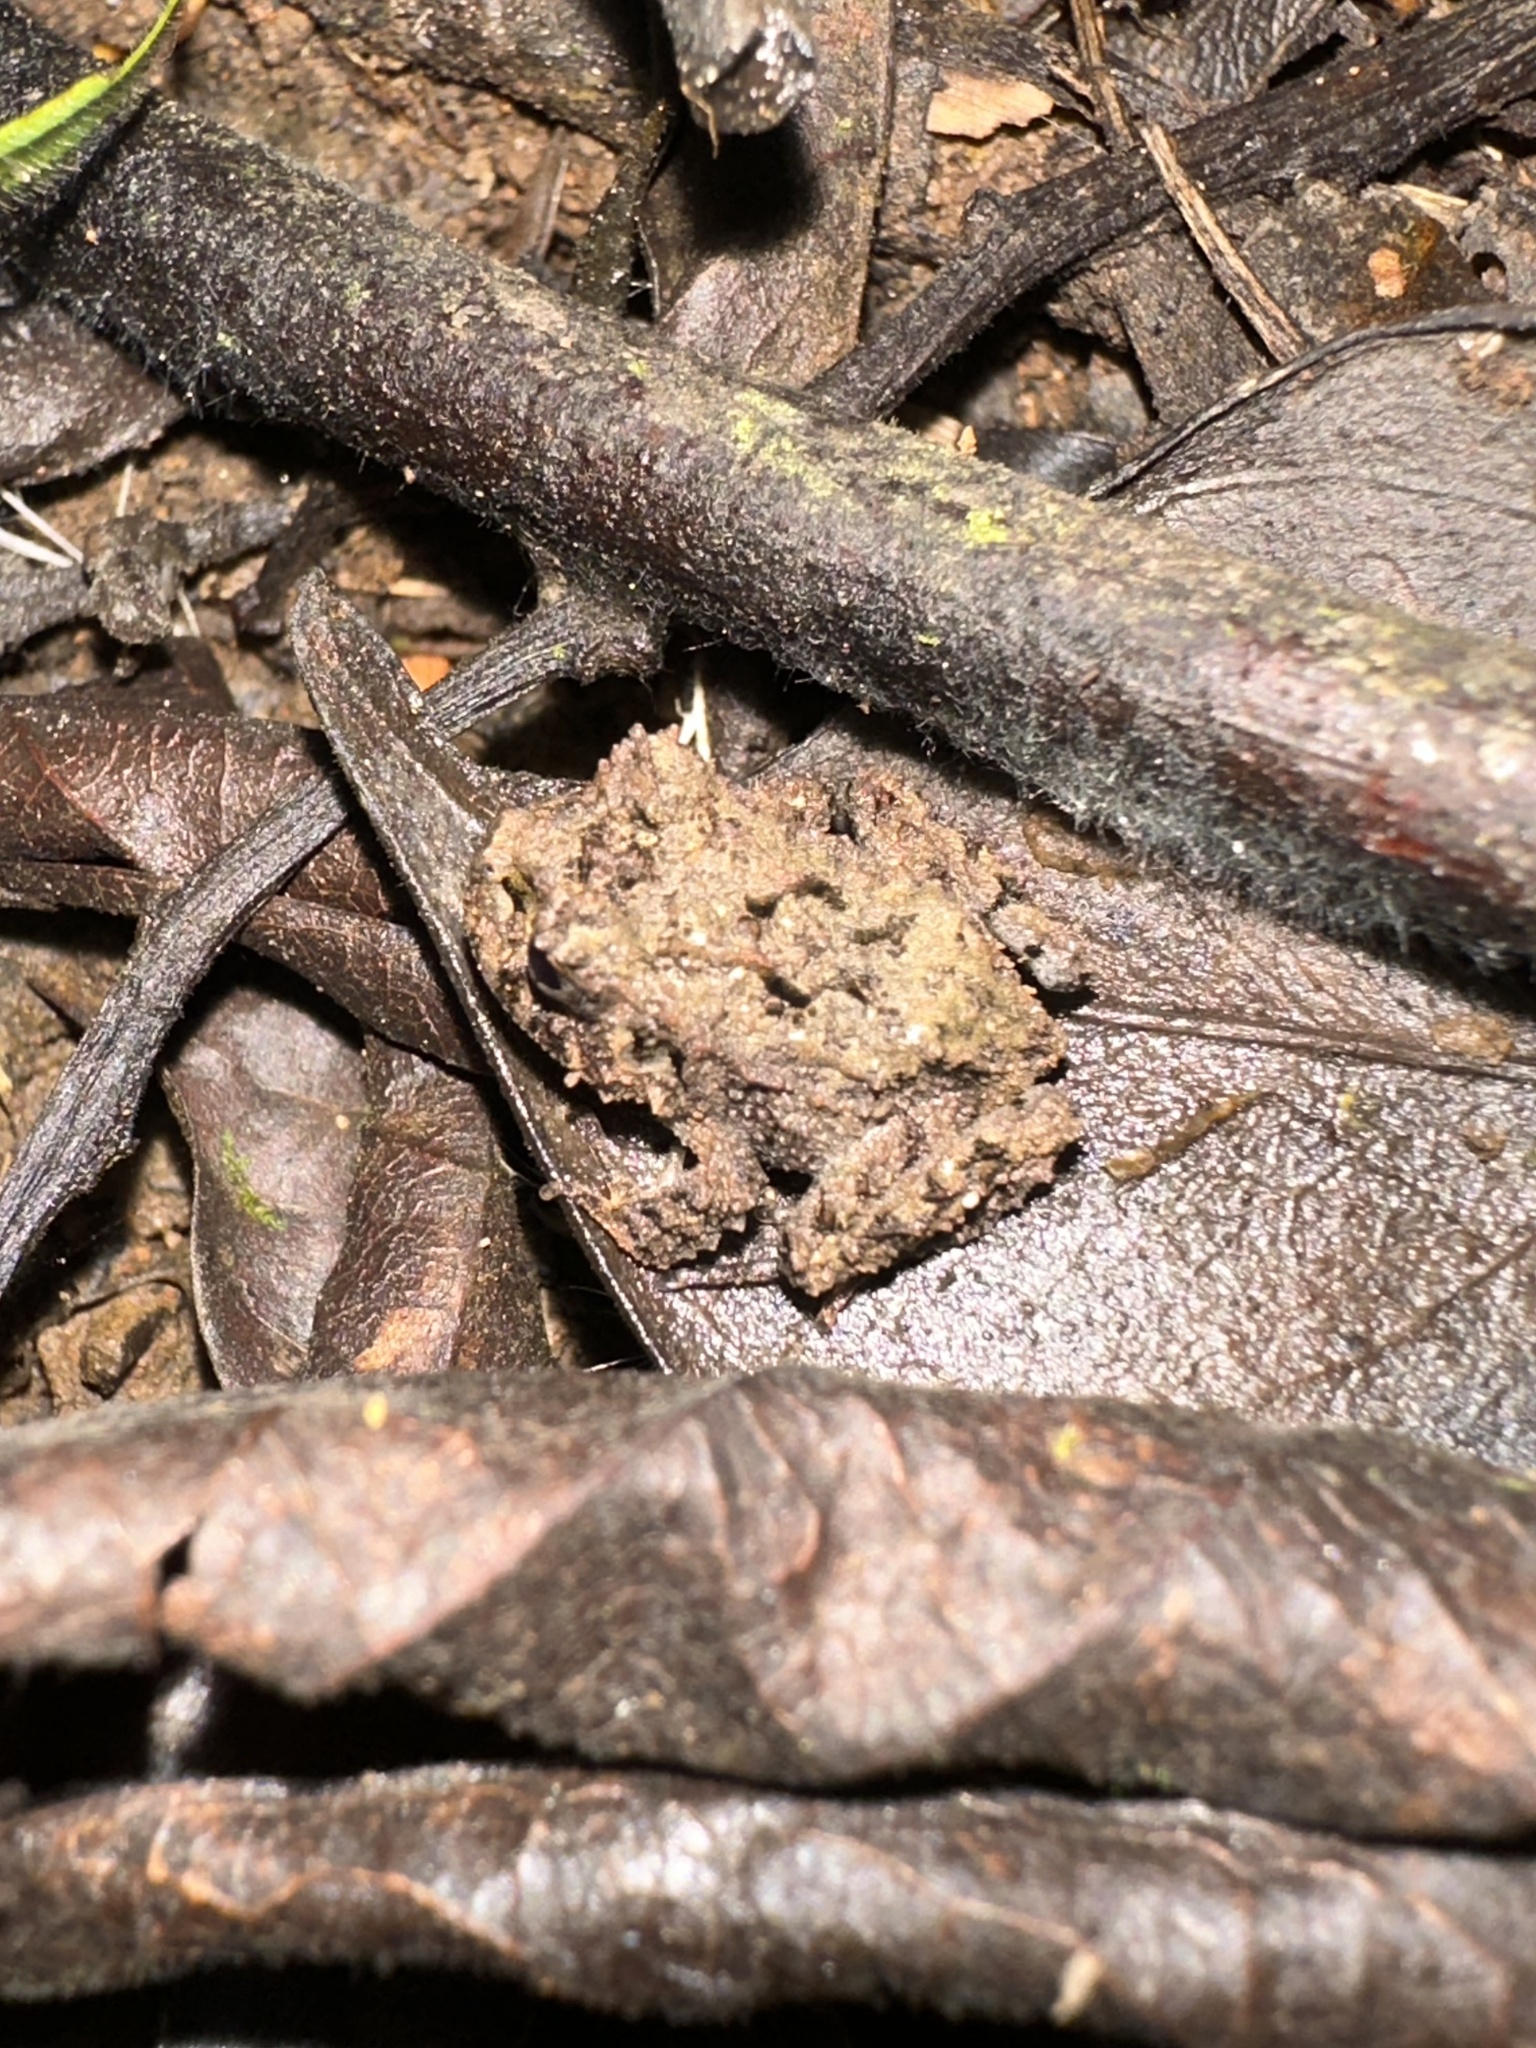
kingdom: Animalia
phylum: Chordata
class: Amphibia
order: Anura
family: Craugastoridae
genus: Strabomantis
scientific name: Strabomantis ruizi
